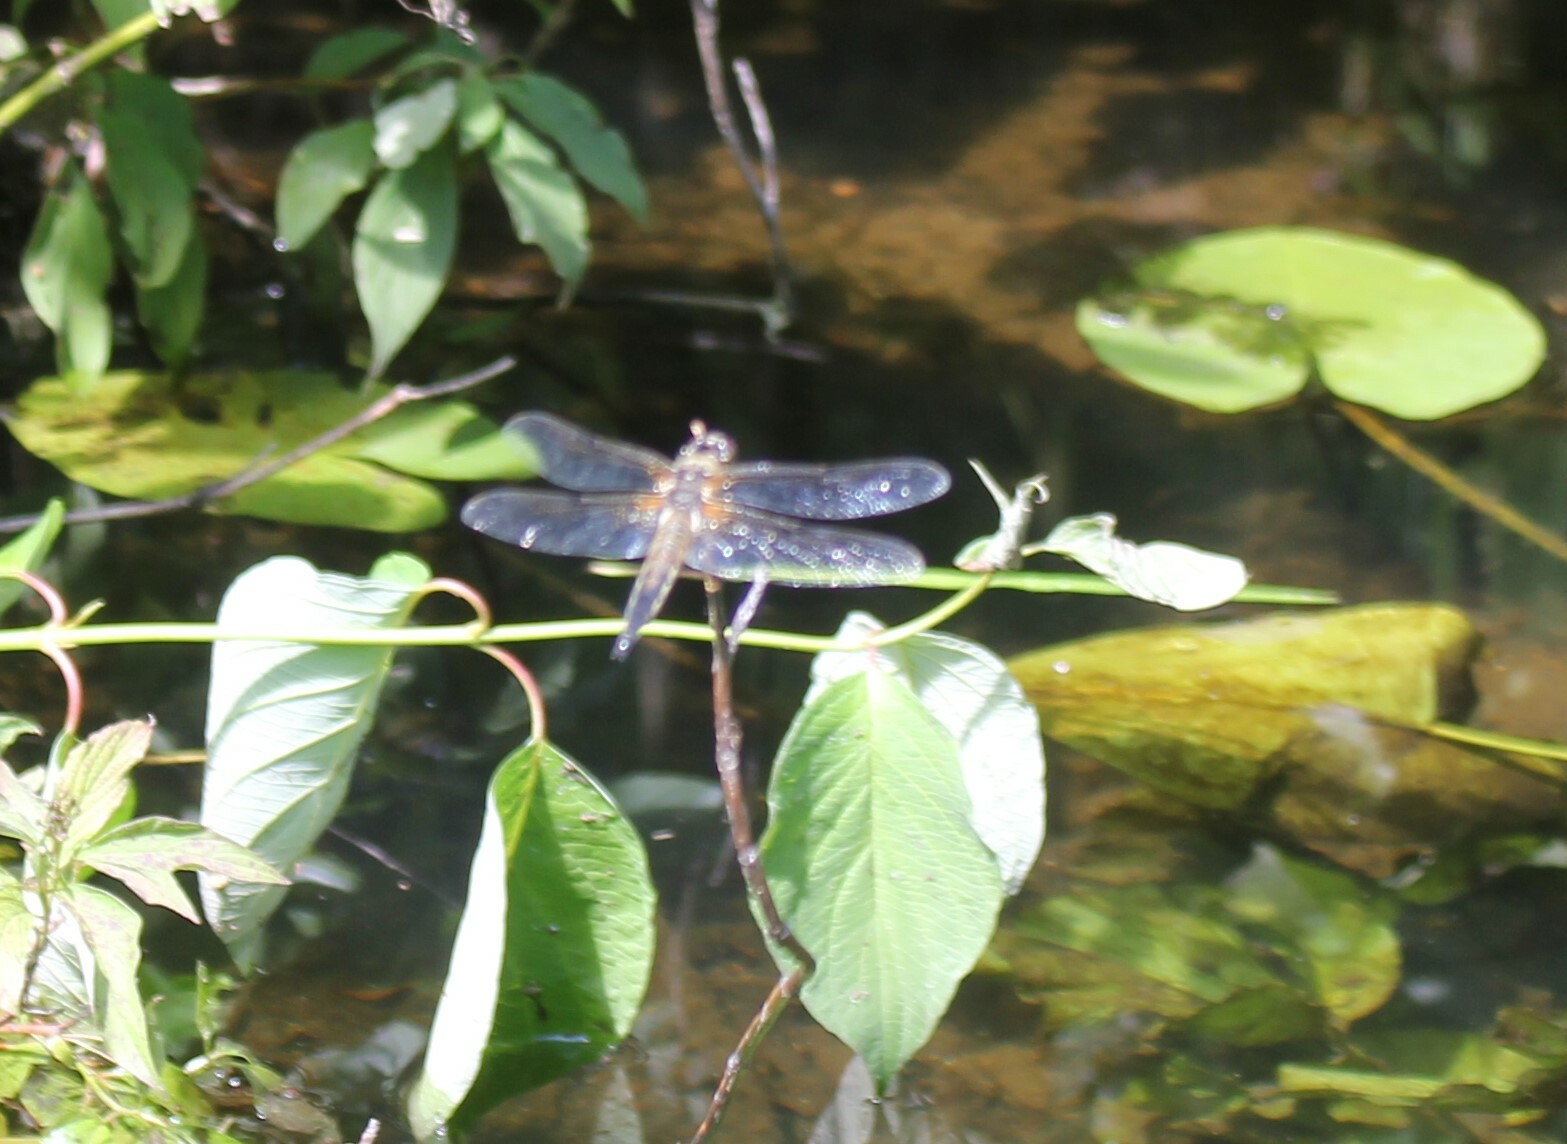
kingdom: Animalia
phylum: Arthropoda
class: Insecta
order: Odonata
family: Libellulidae
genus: Libellula
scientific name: Libellula quadrimaculata
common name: Four-spotted chaser
